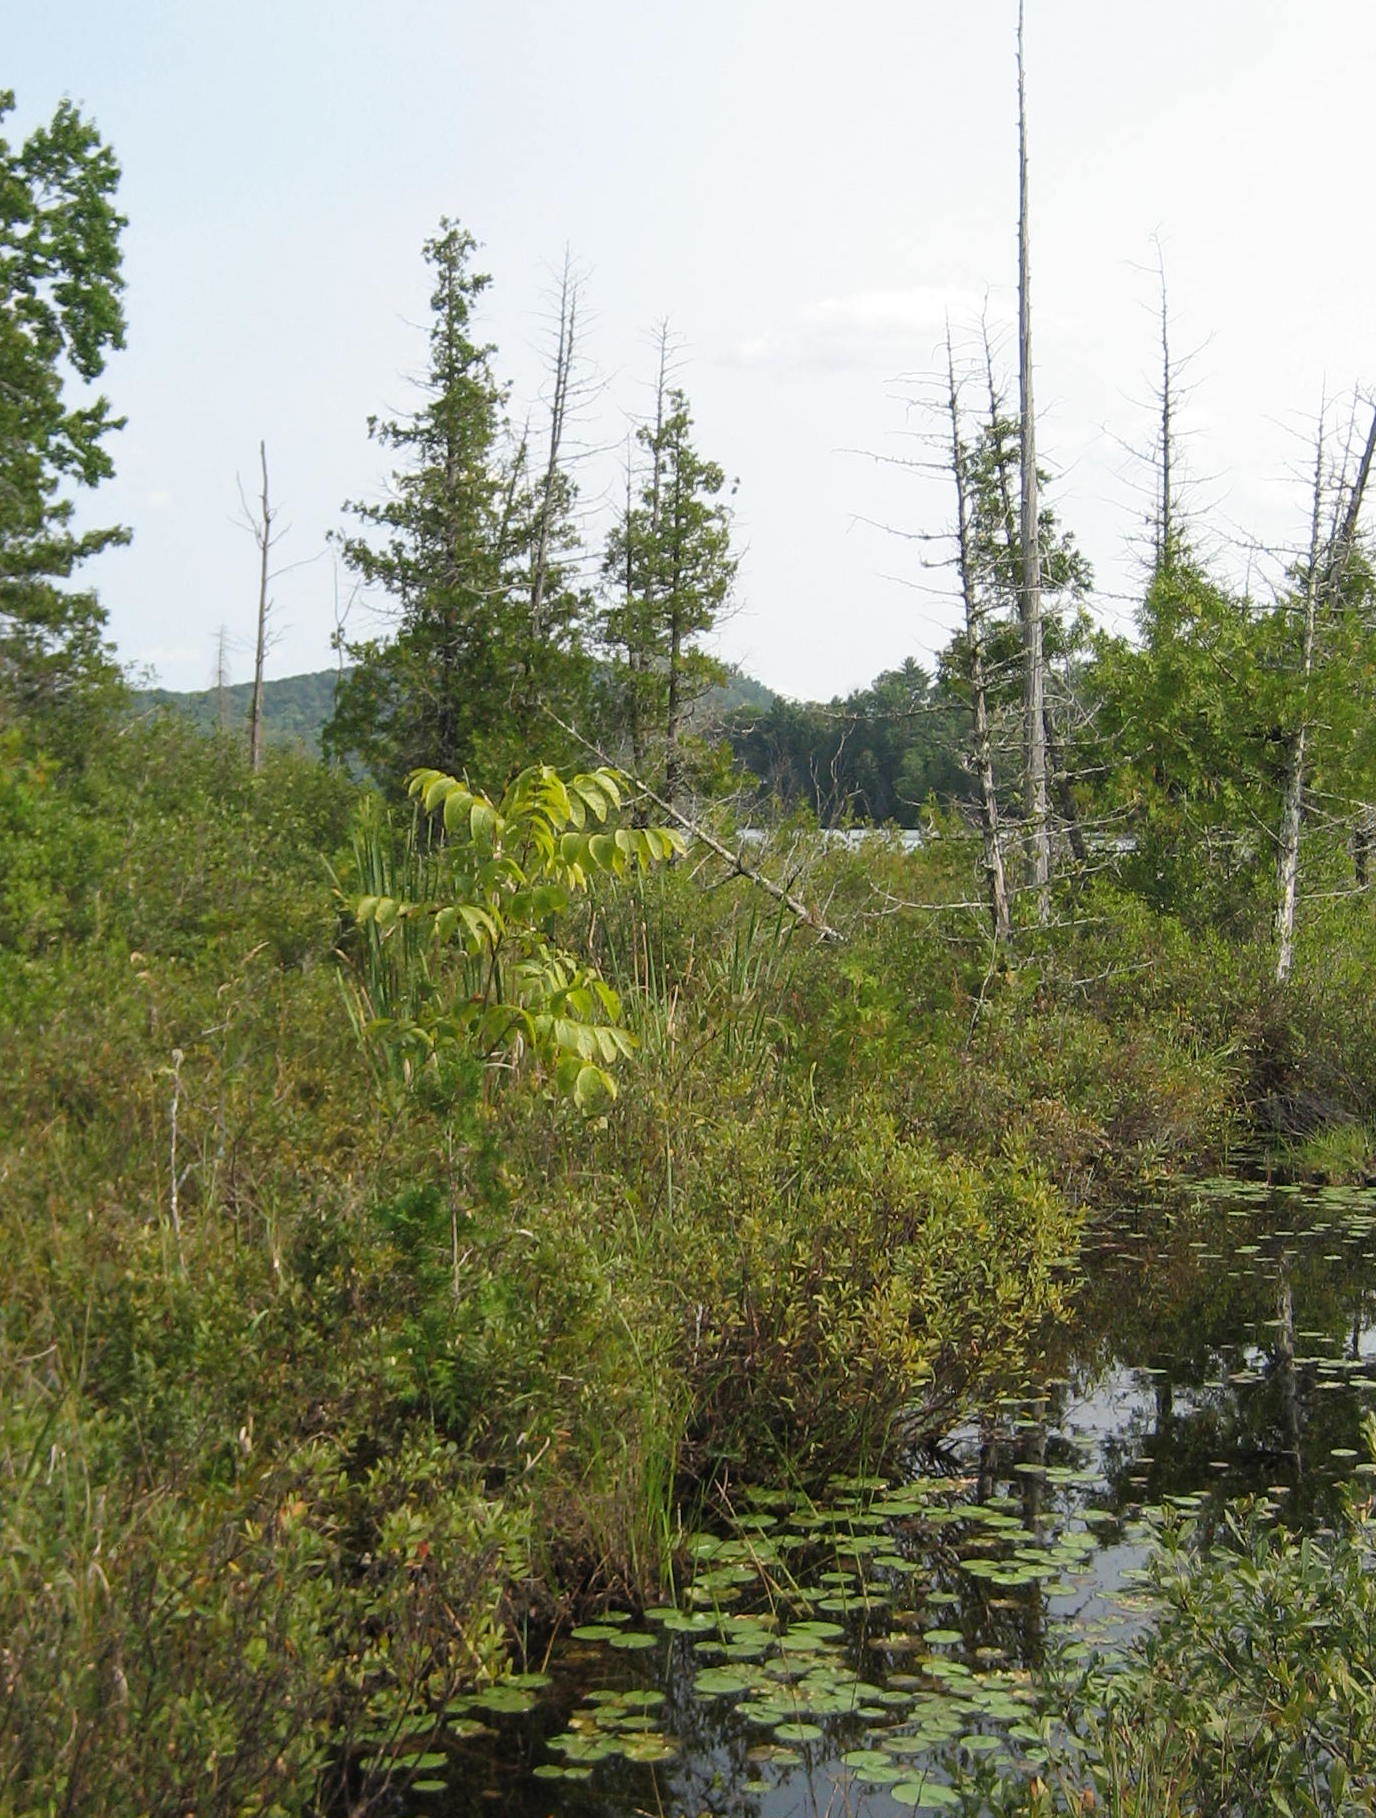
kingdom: Plantae
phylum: Tracheophyta
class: Magnoliopsida
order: Lamiales
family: Oleaceae
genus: Fraxinus
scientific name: Fraxinus nigra
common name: Black ash
